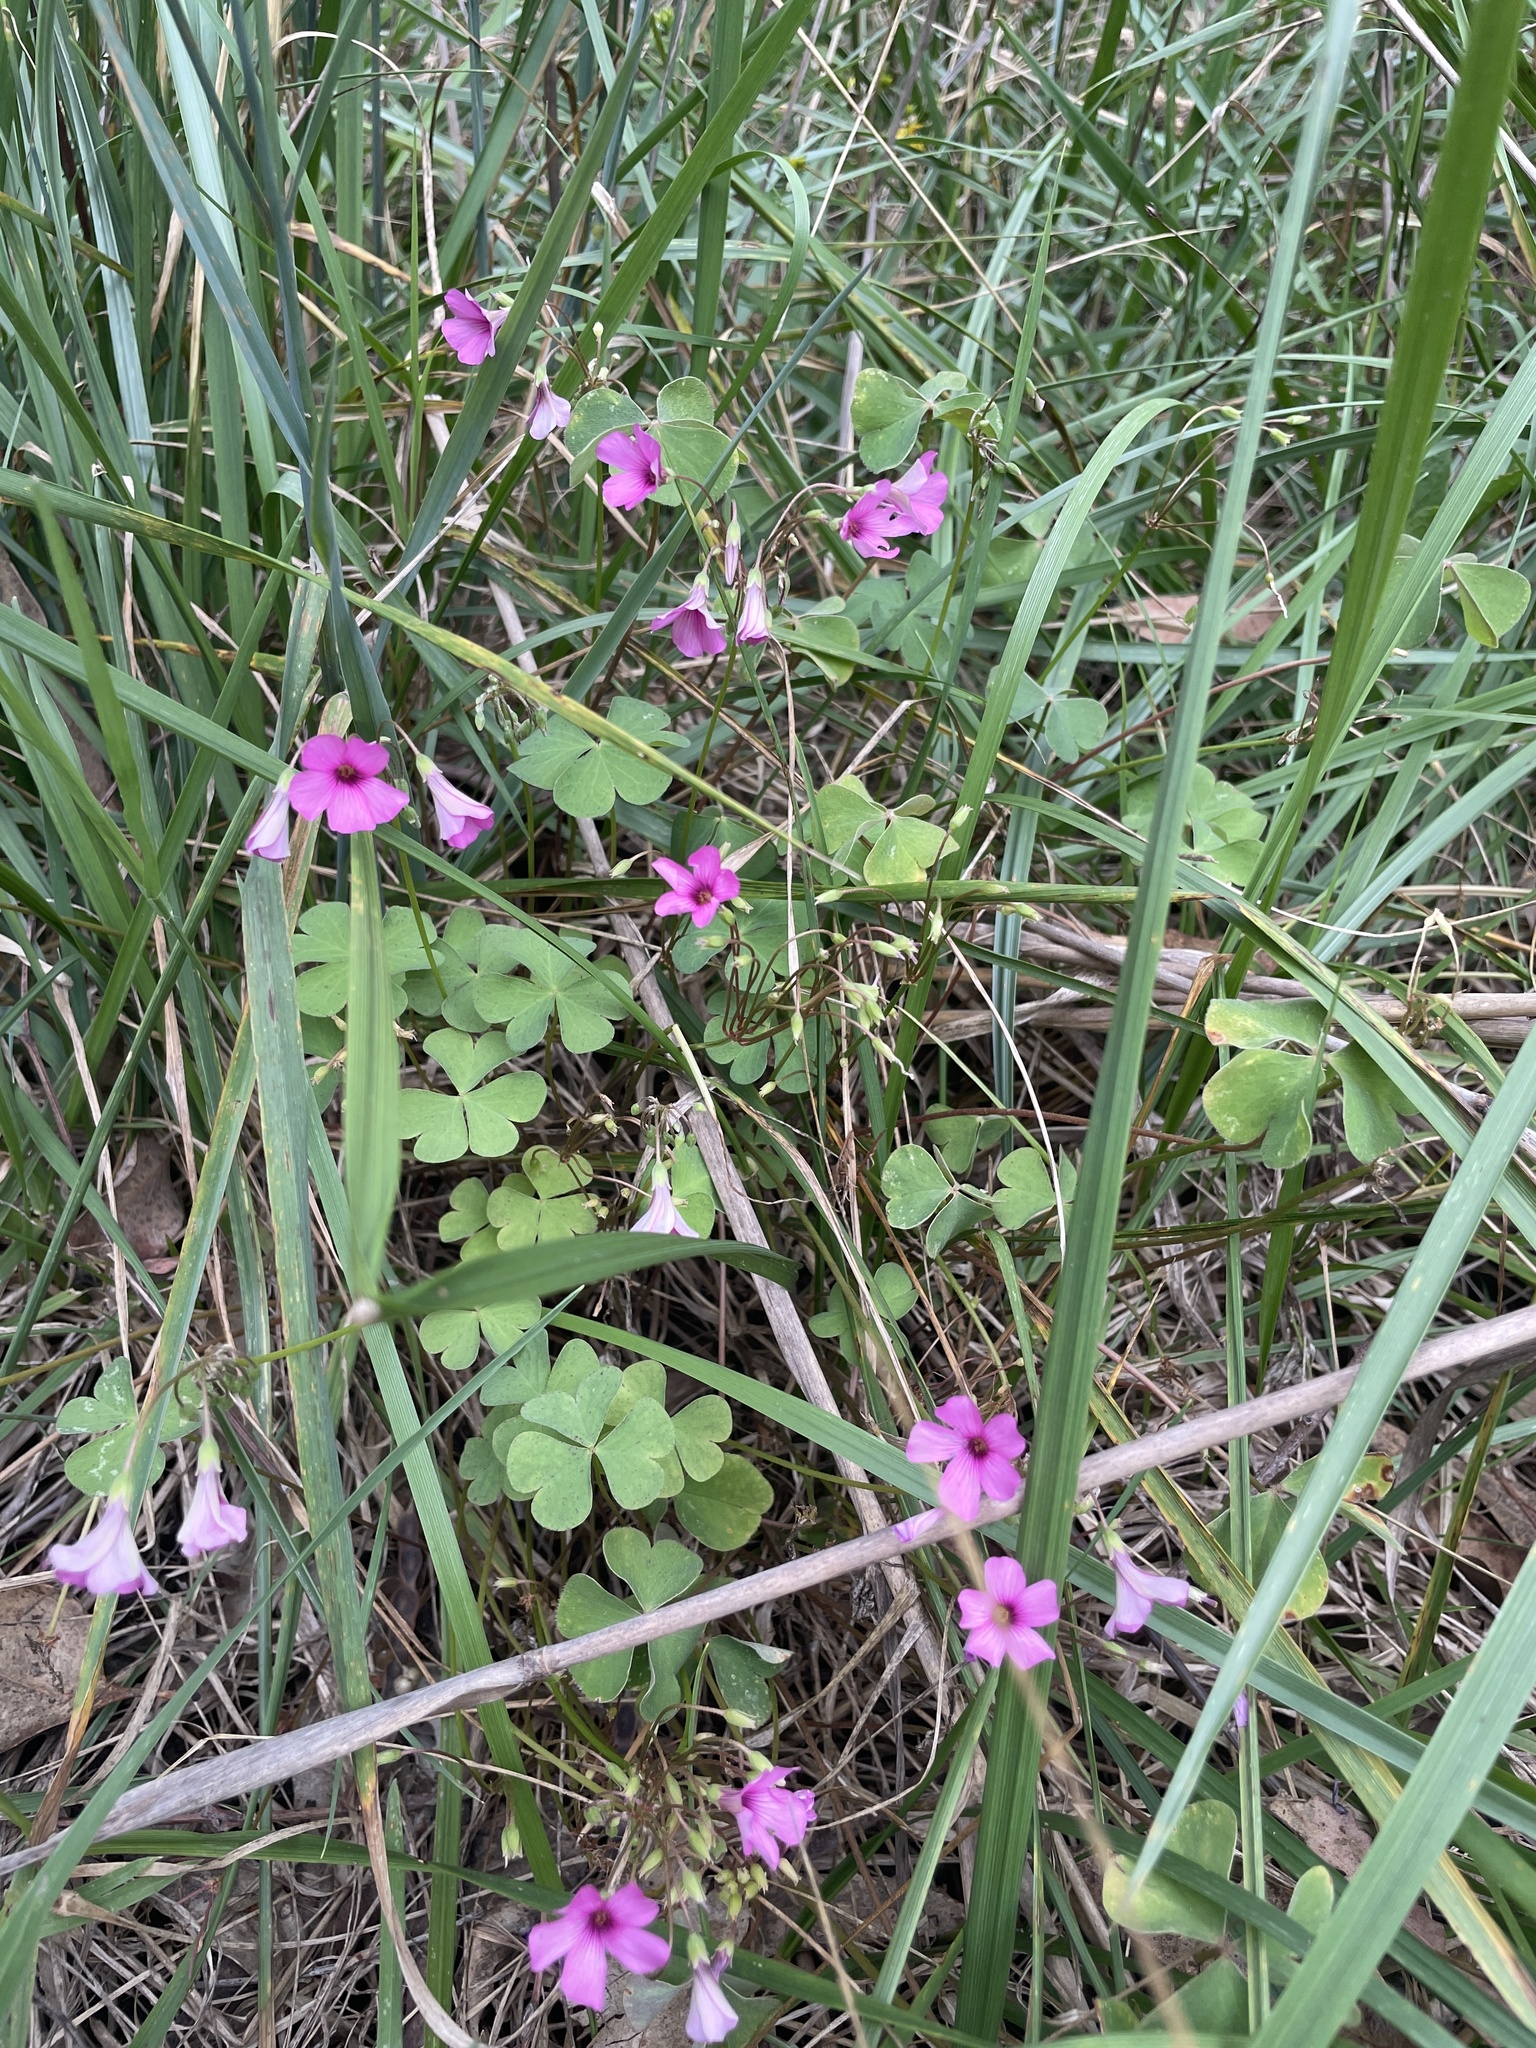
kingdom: Plantae
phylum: Tracheophyta
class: Magnoliopsida
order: Oxalidales
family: Oxalidaceae
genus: Oxalis
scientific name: Oxalis articulata
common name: Pink-sorrel
